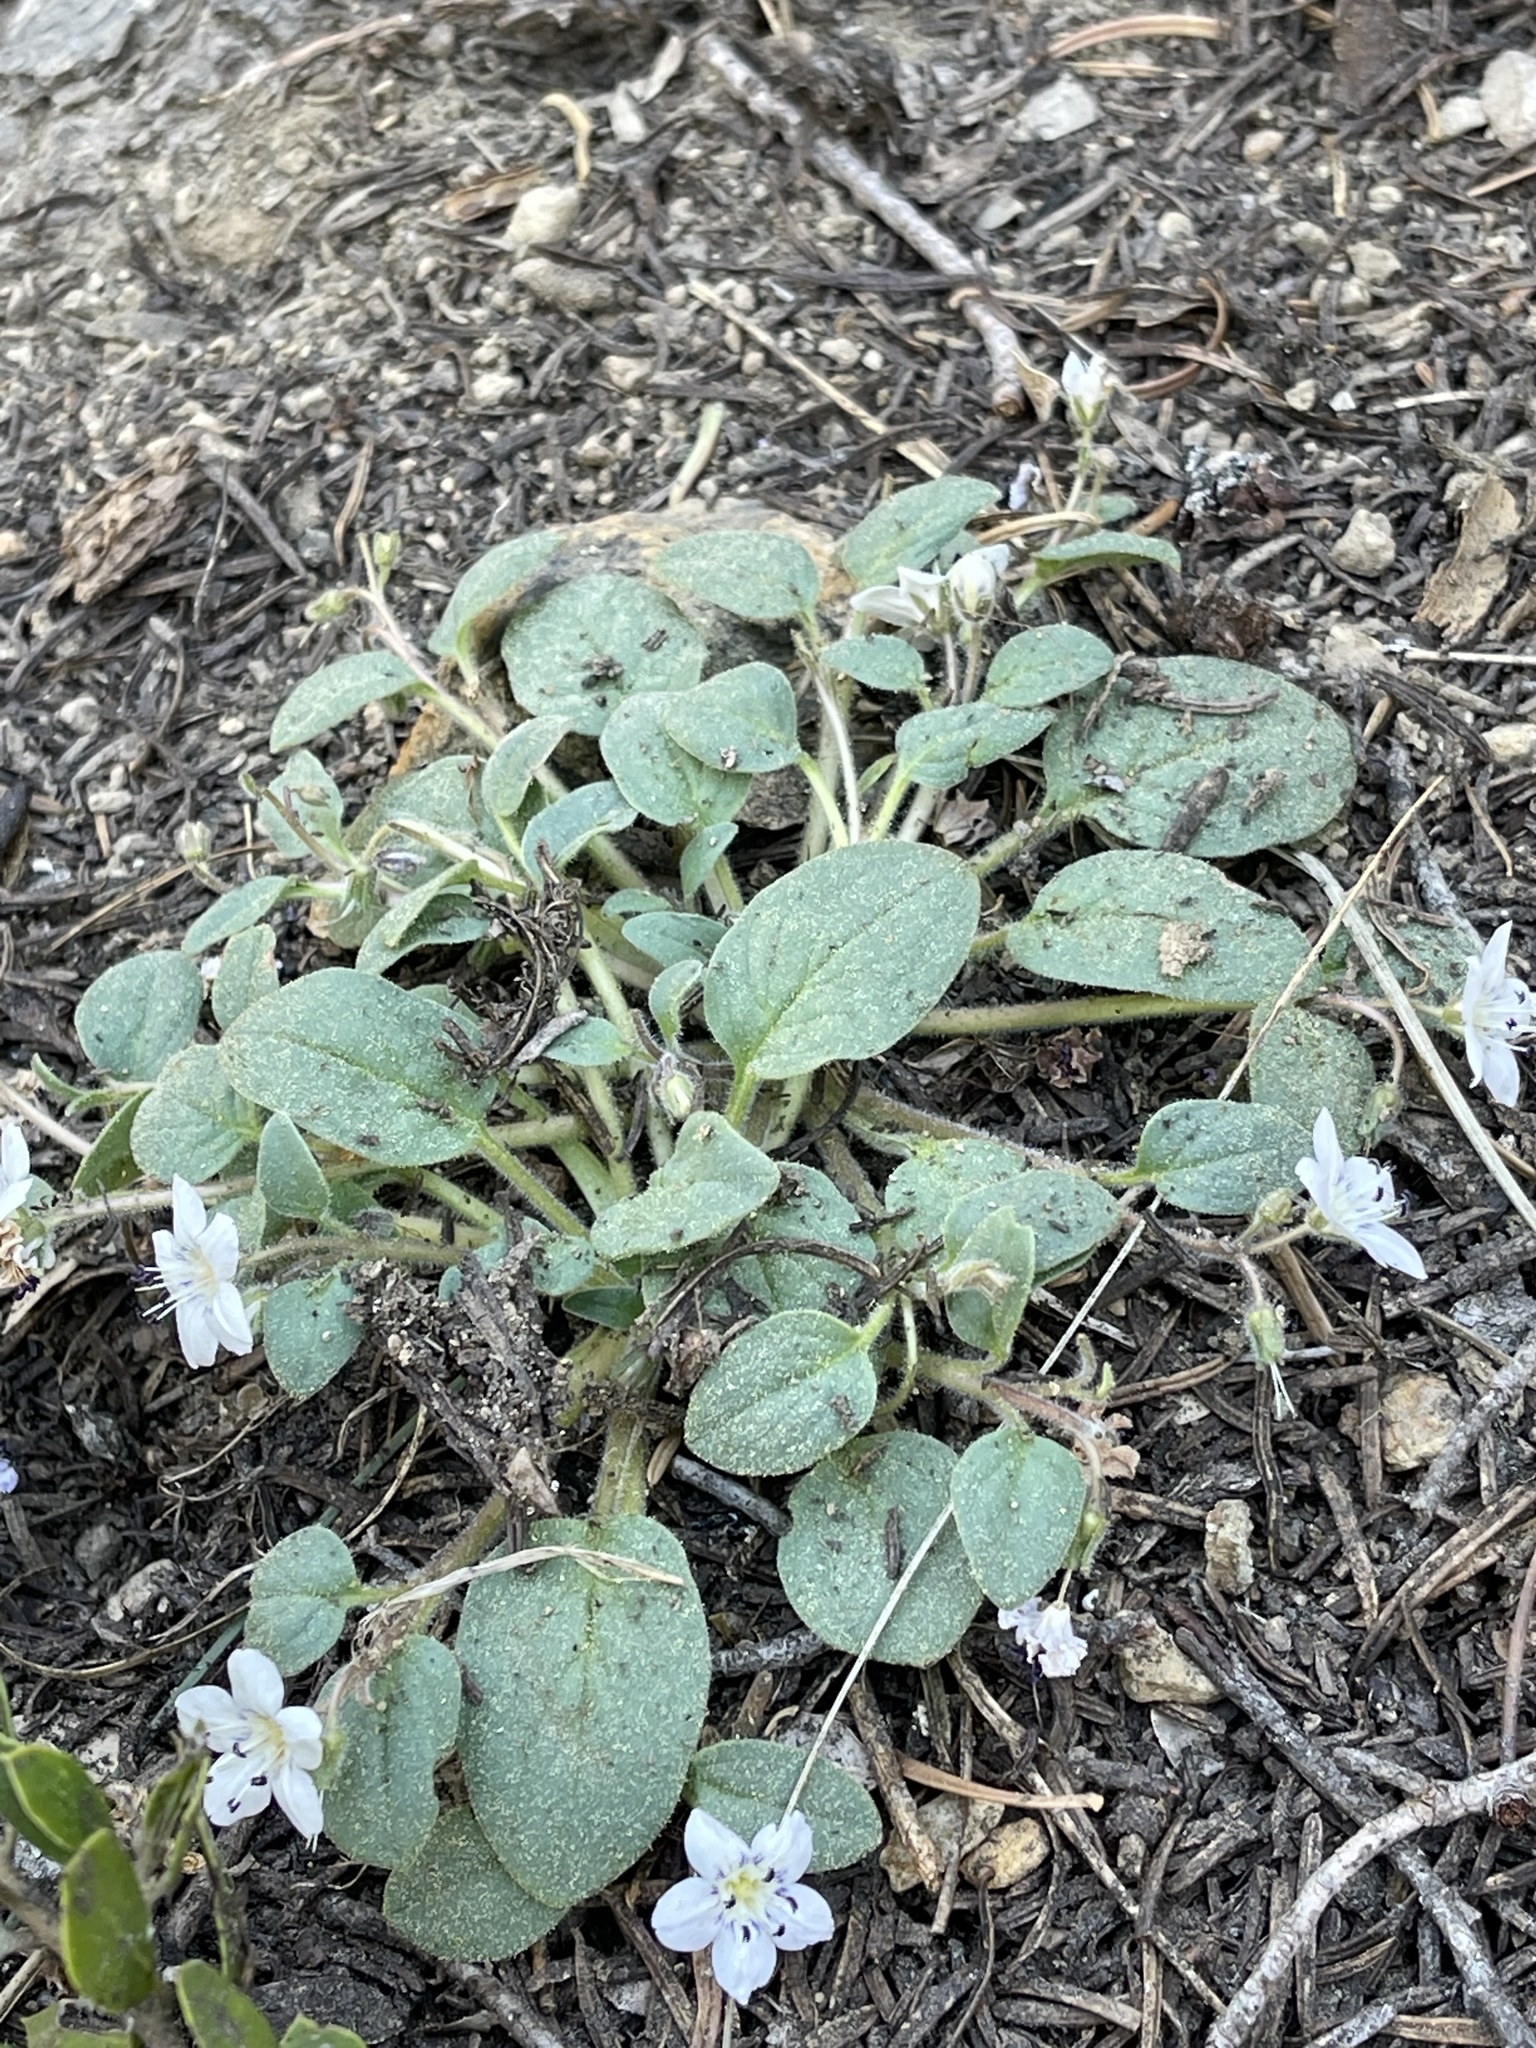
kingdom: Plantae
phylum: Tracheophyta
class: Magnoliopsida
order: Boraginales
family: Hydrophyllaceae
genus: Howellanthus
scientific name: Howellanthus dalesianus
